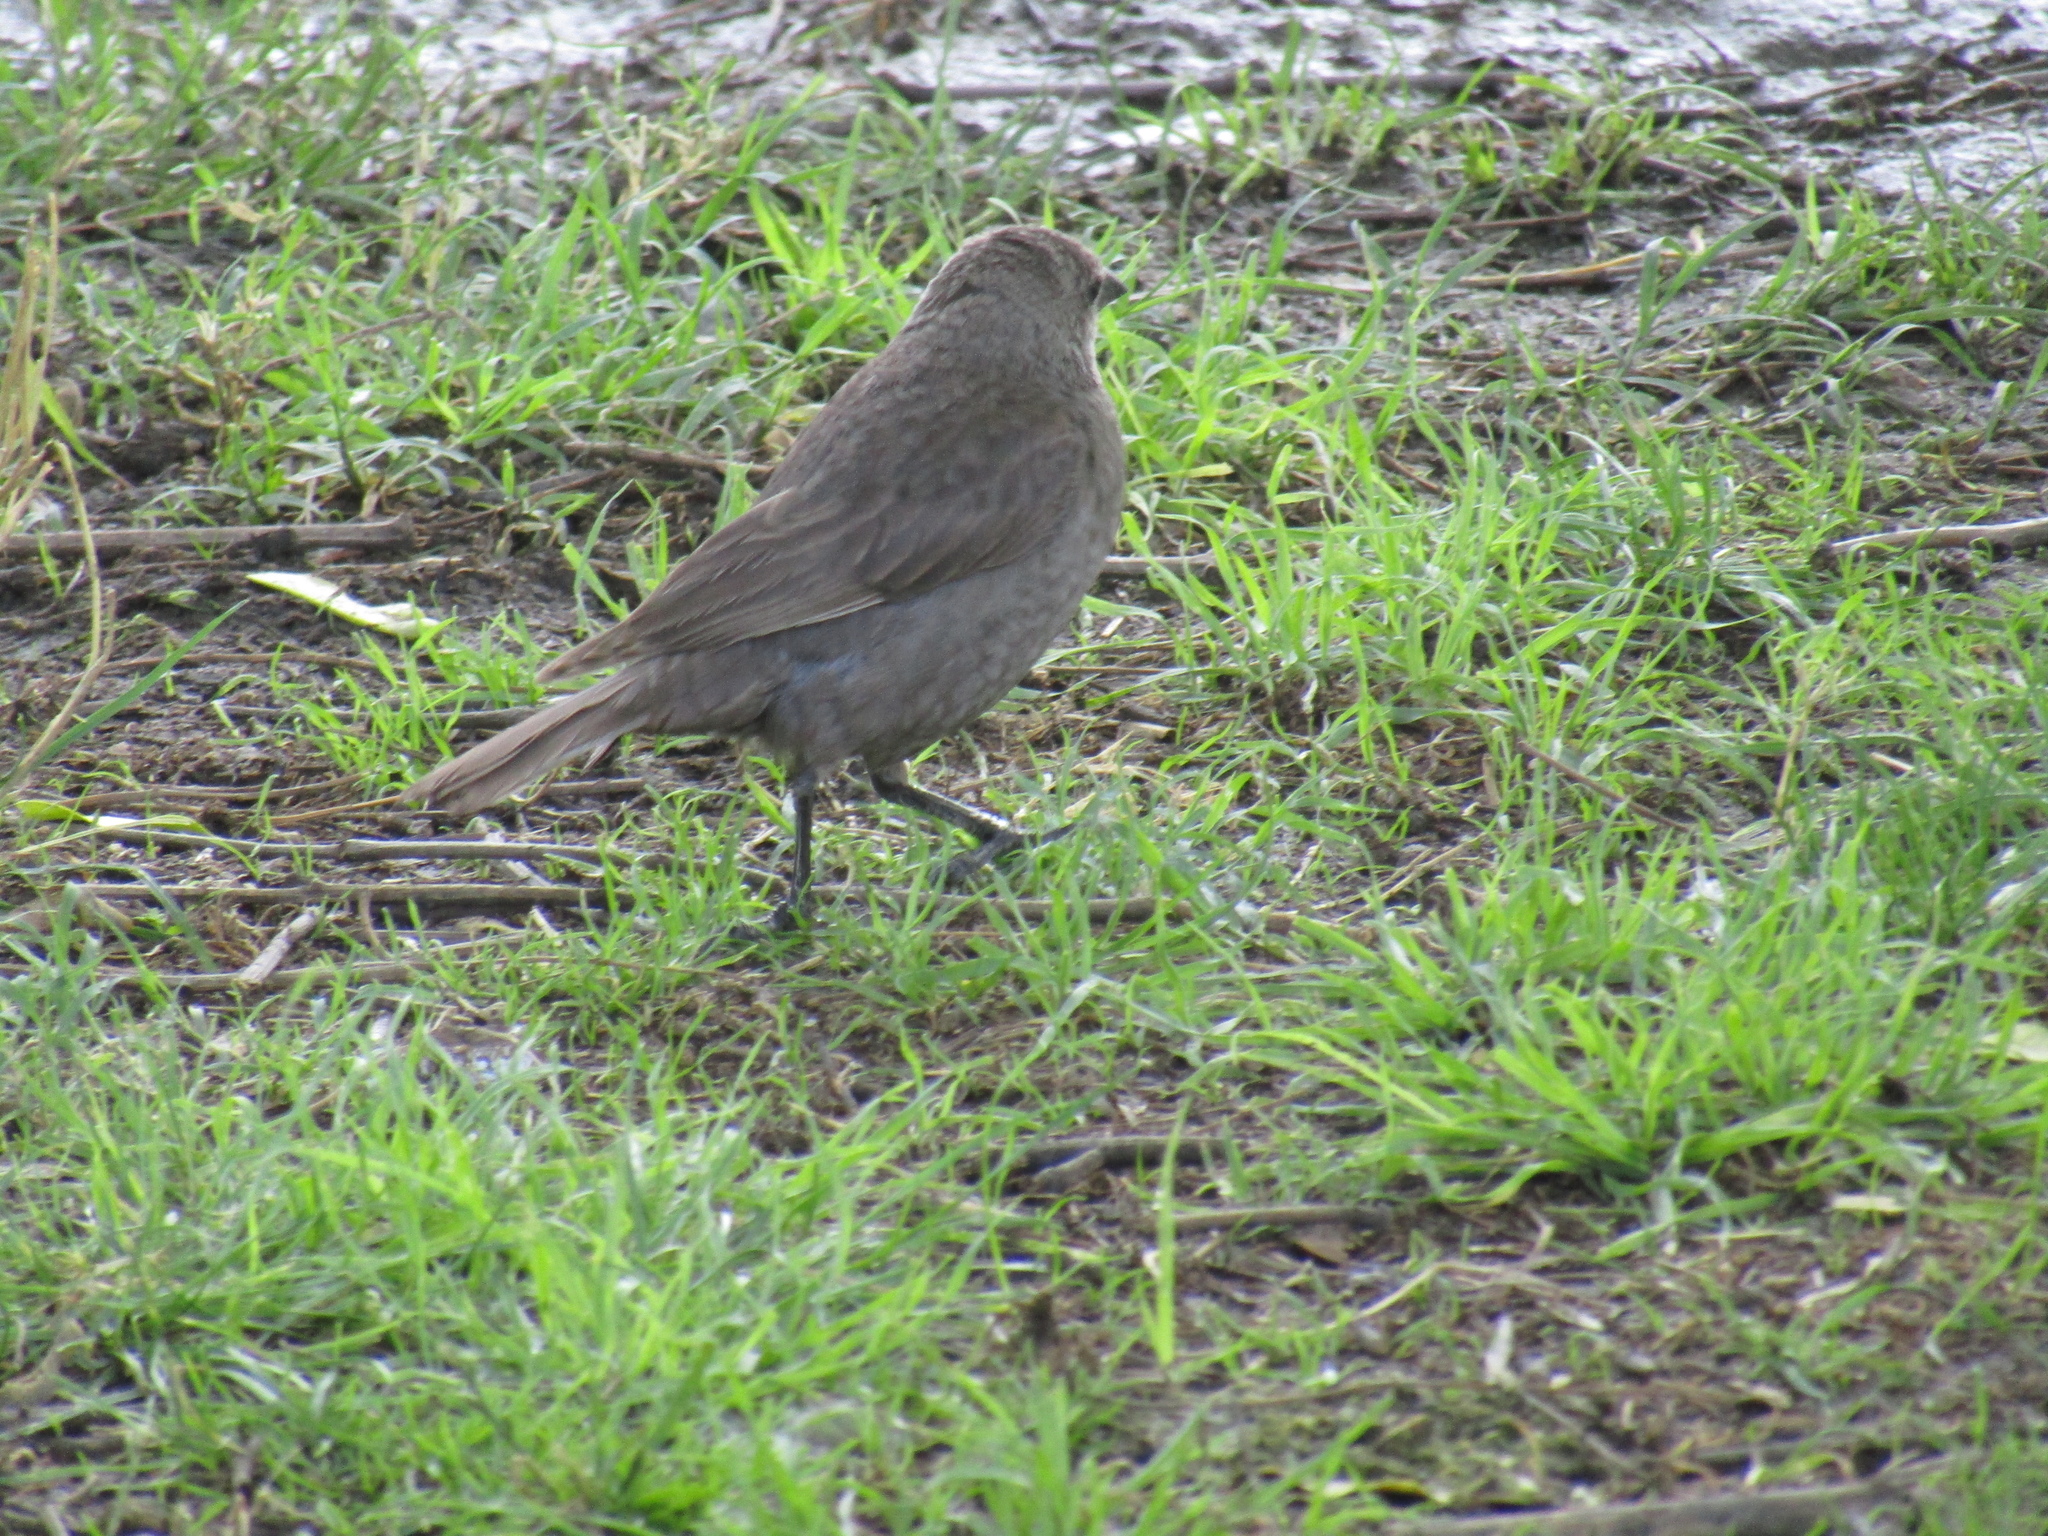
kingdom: Animalia
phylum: Chordata
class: Aves
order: Passeriformes
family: Icteridae
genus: Molothrus
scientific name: Molothrus bonariensis
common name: Shiny cowbird
